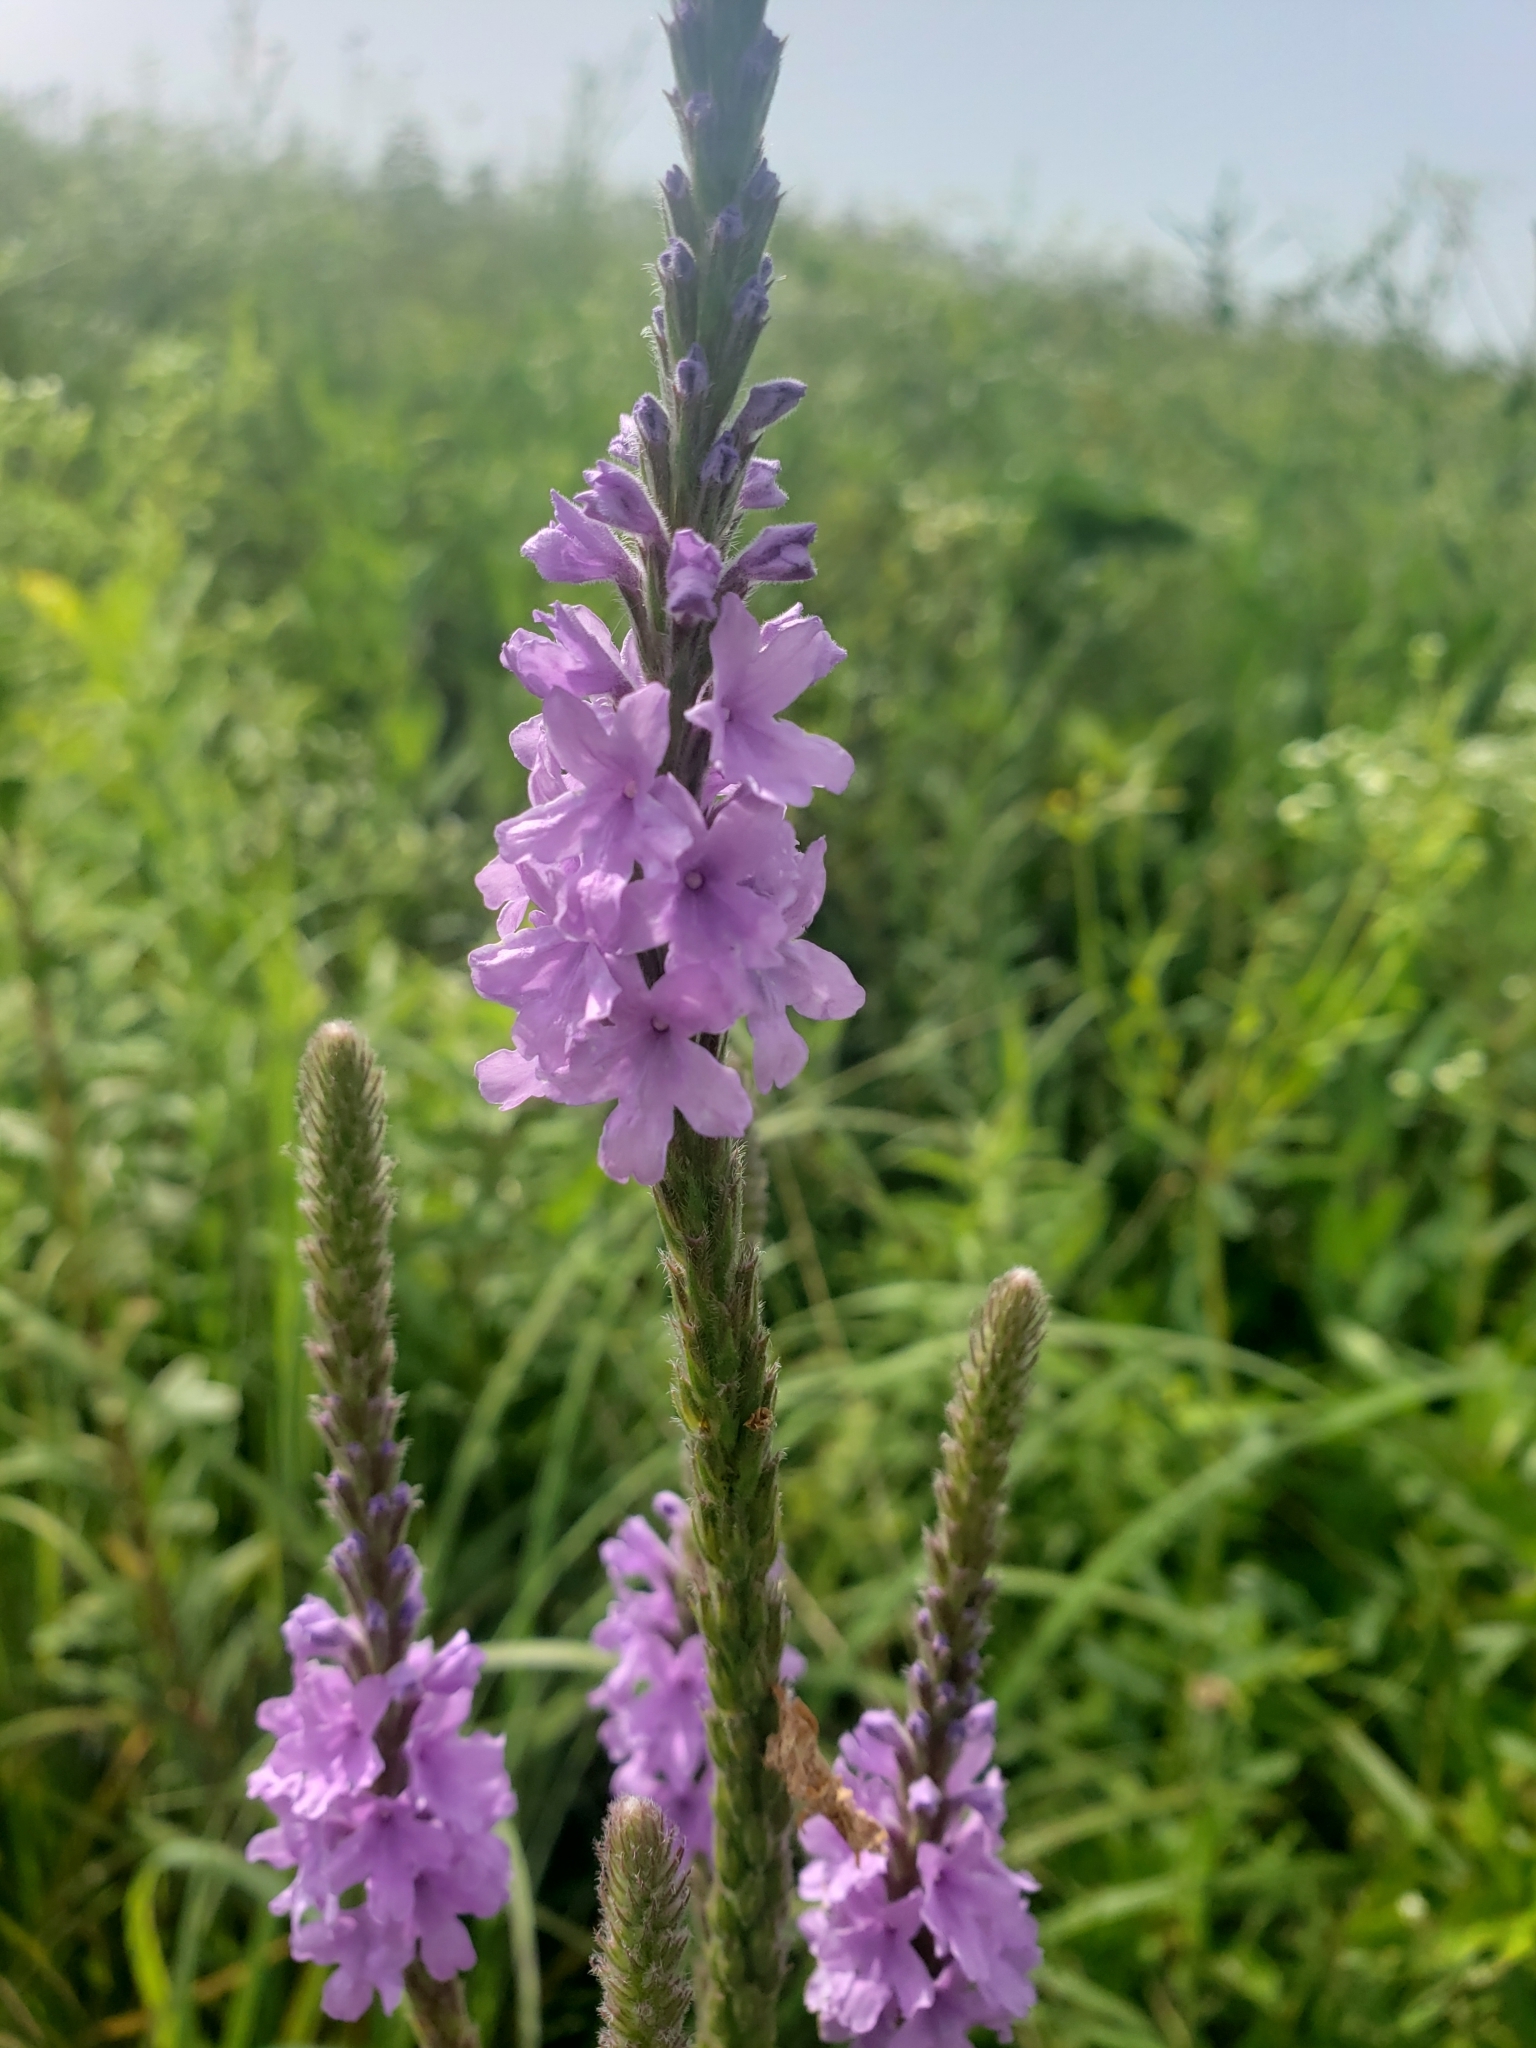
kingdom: Plantae
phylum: Tracheophyta
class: Magnoliopsida
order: Lamiales
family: Verbenaceae
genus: Verbena
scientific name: Verbena stricta
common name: Hoary vervain
